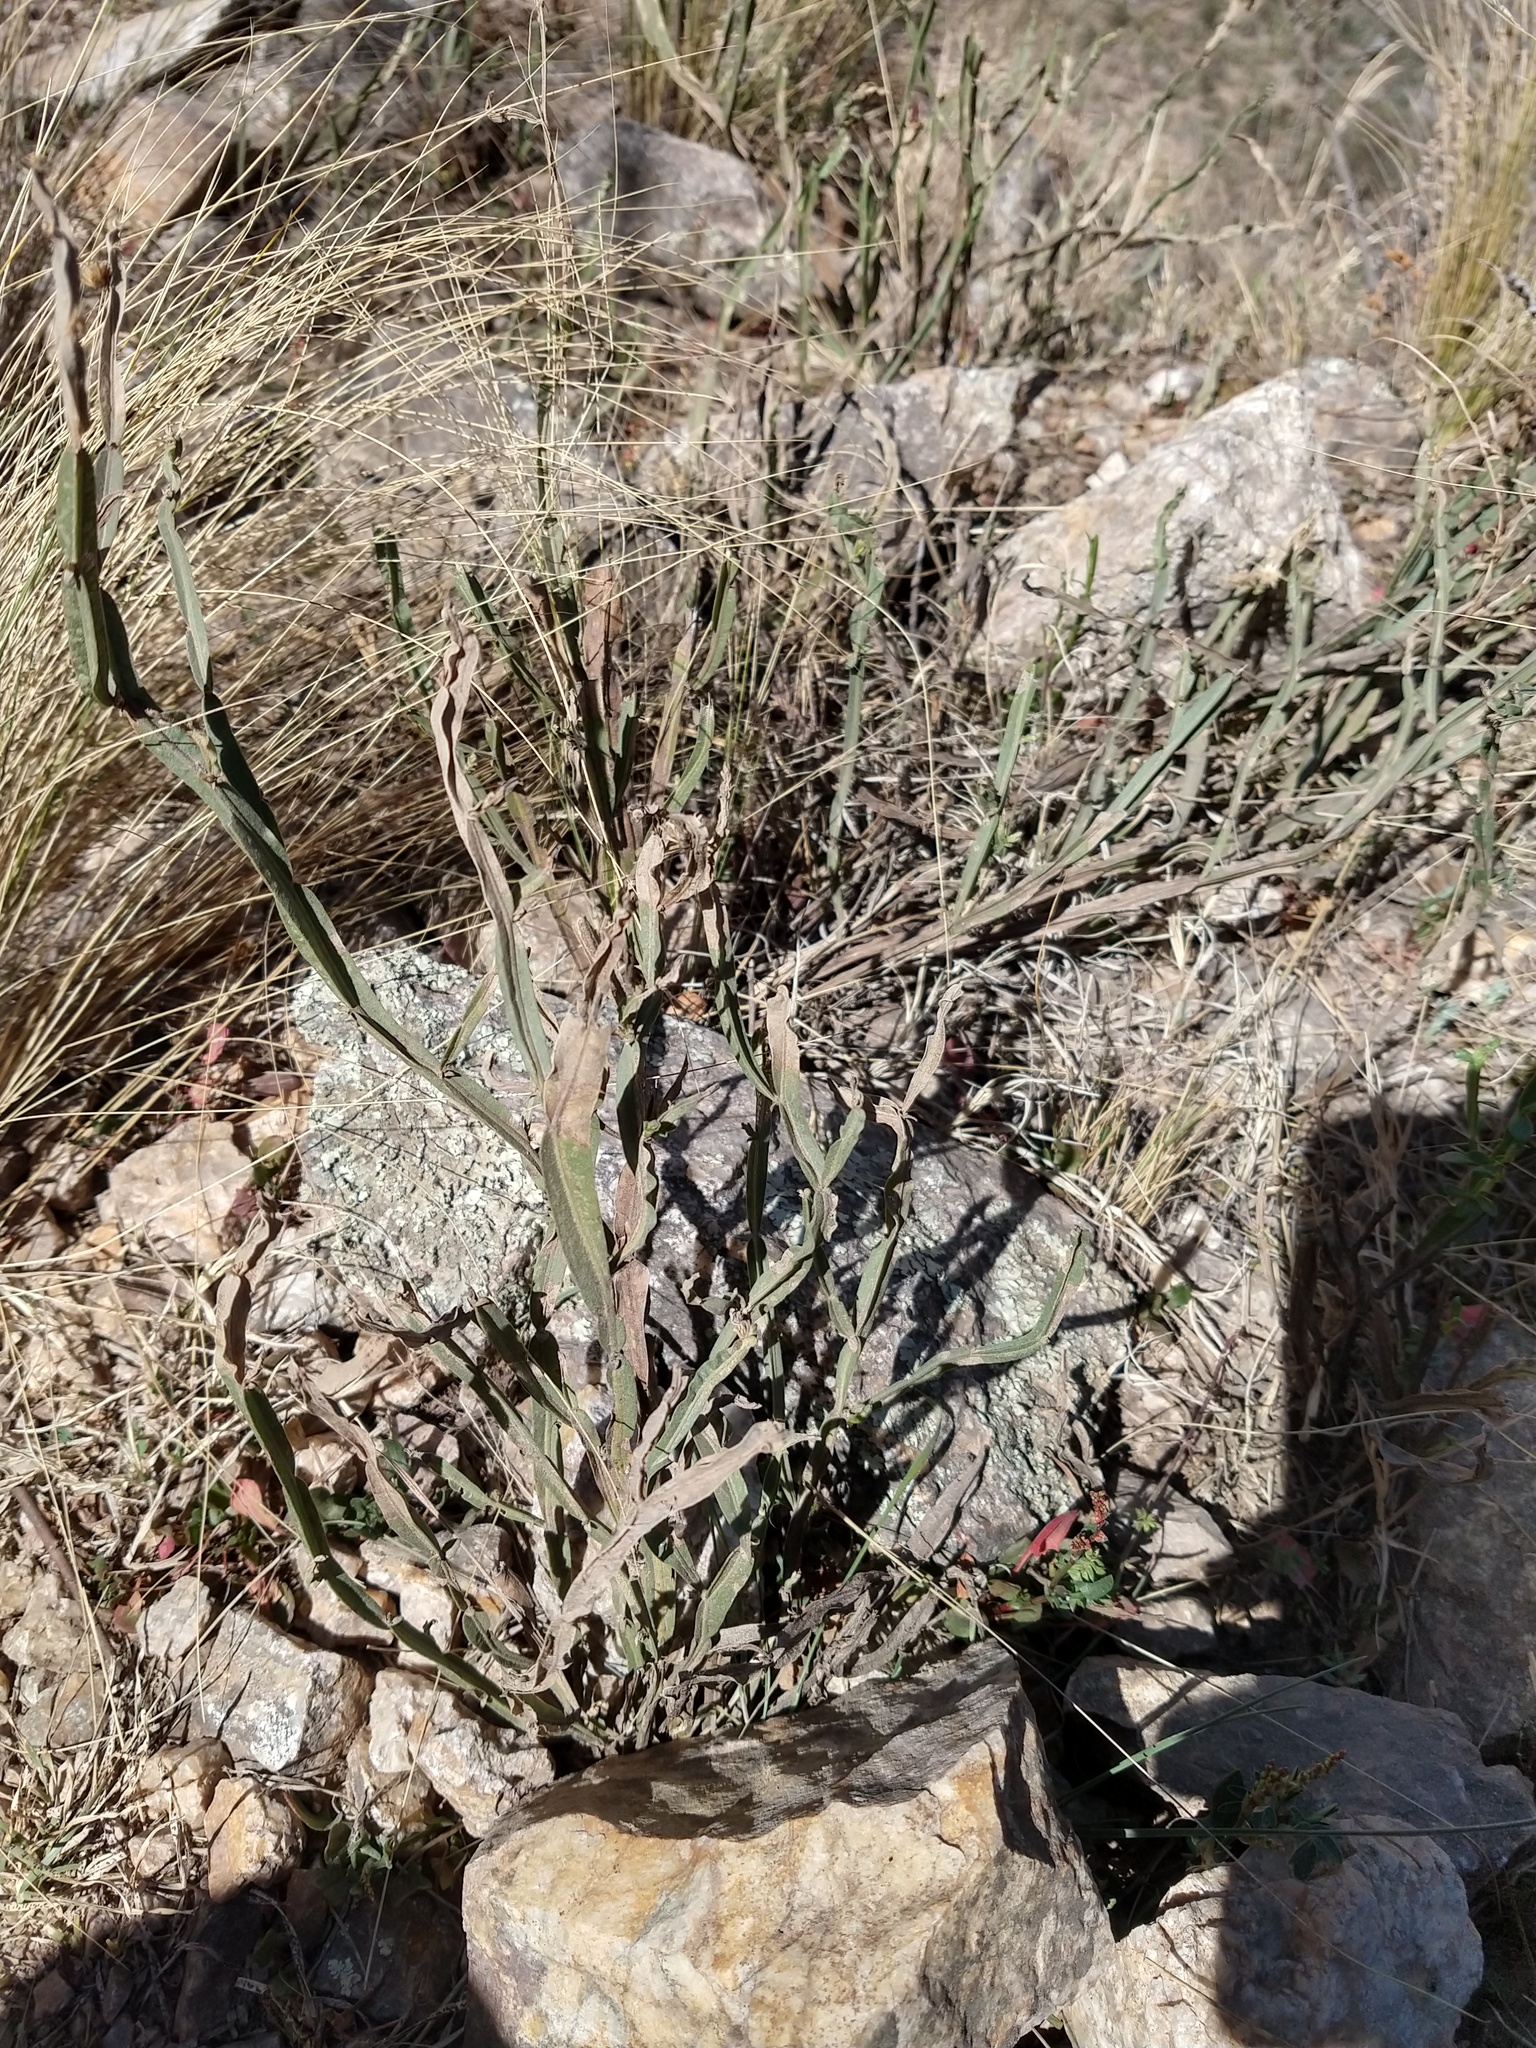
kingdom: Plantae
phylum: Tracheophyta
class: Magnoliopsida
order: Asterales
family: Asteraceae
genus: Baccharis
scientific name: Baccharis crispa
